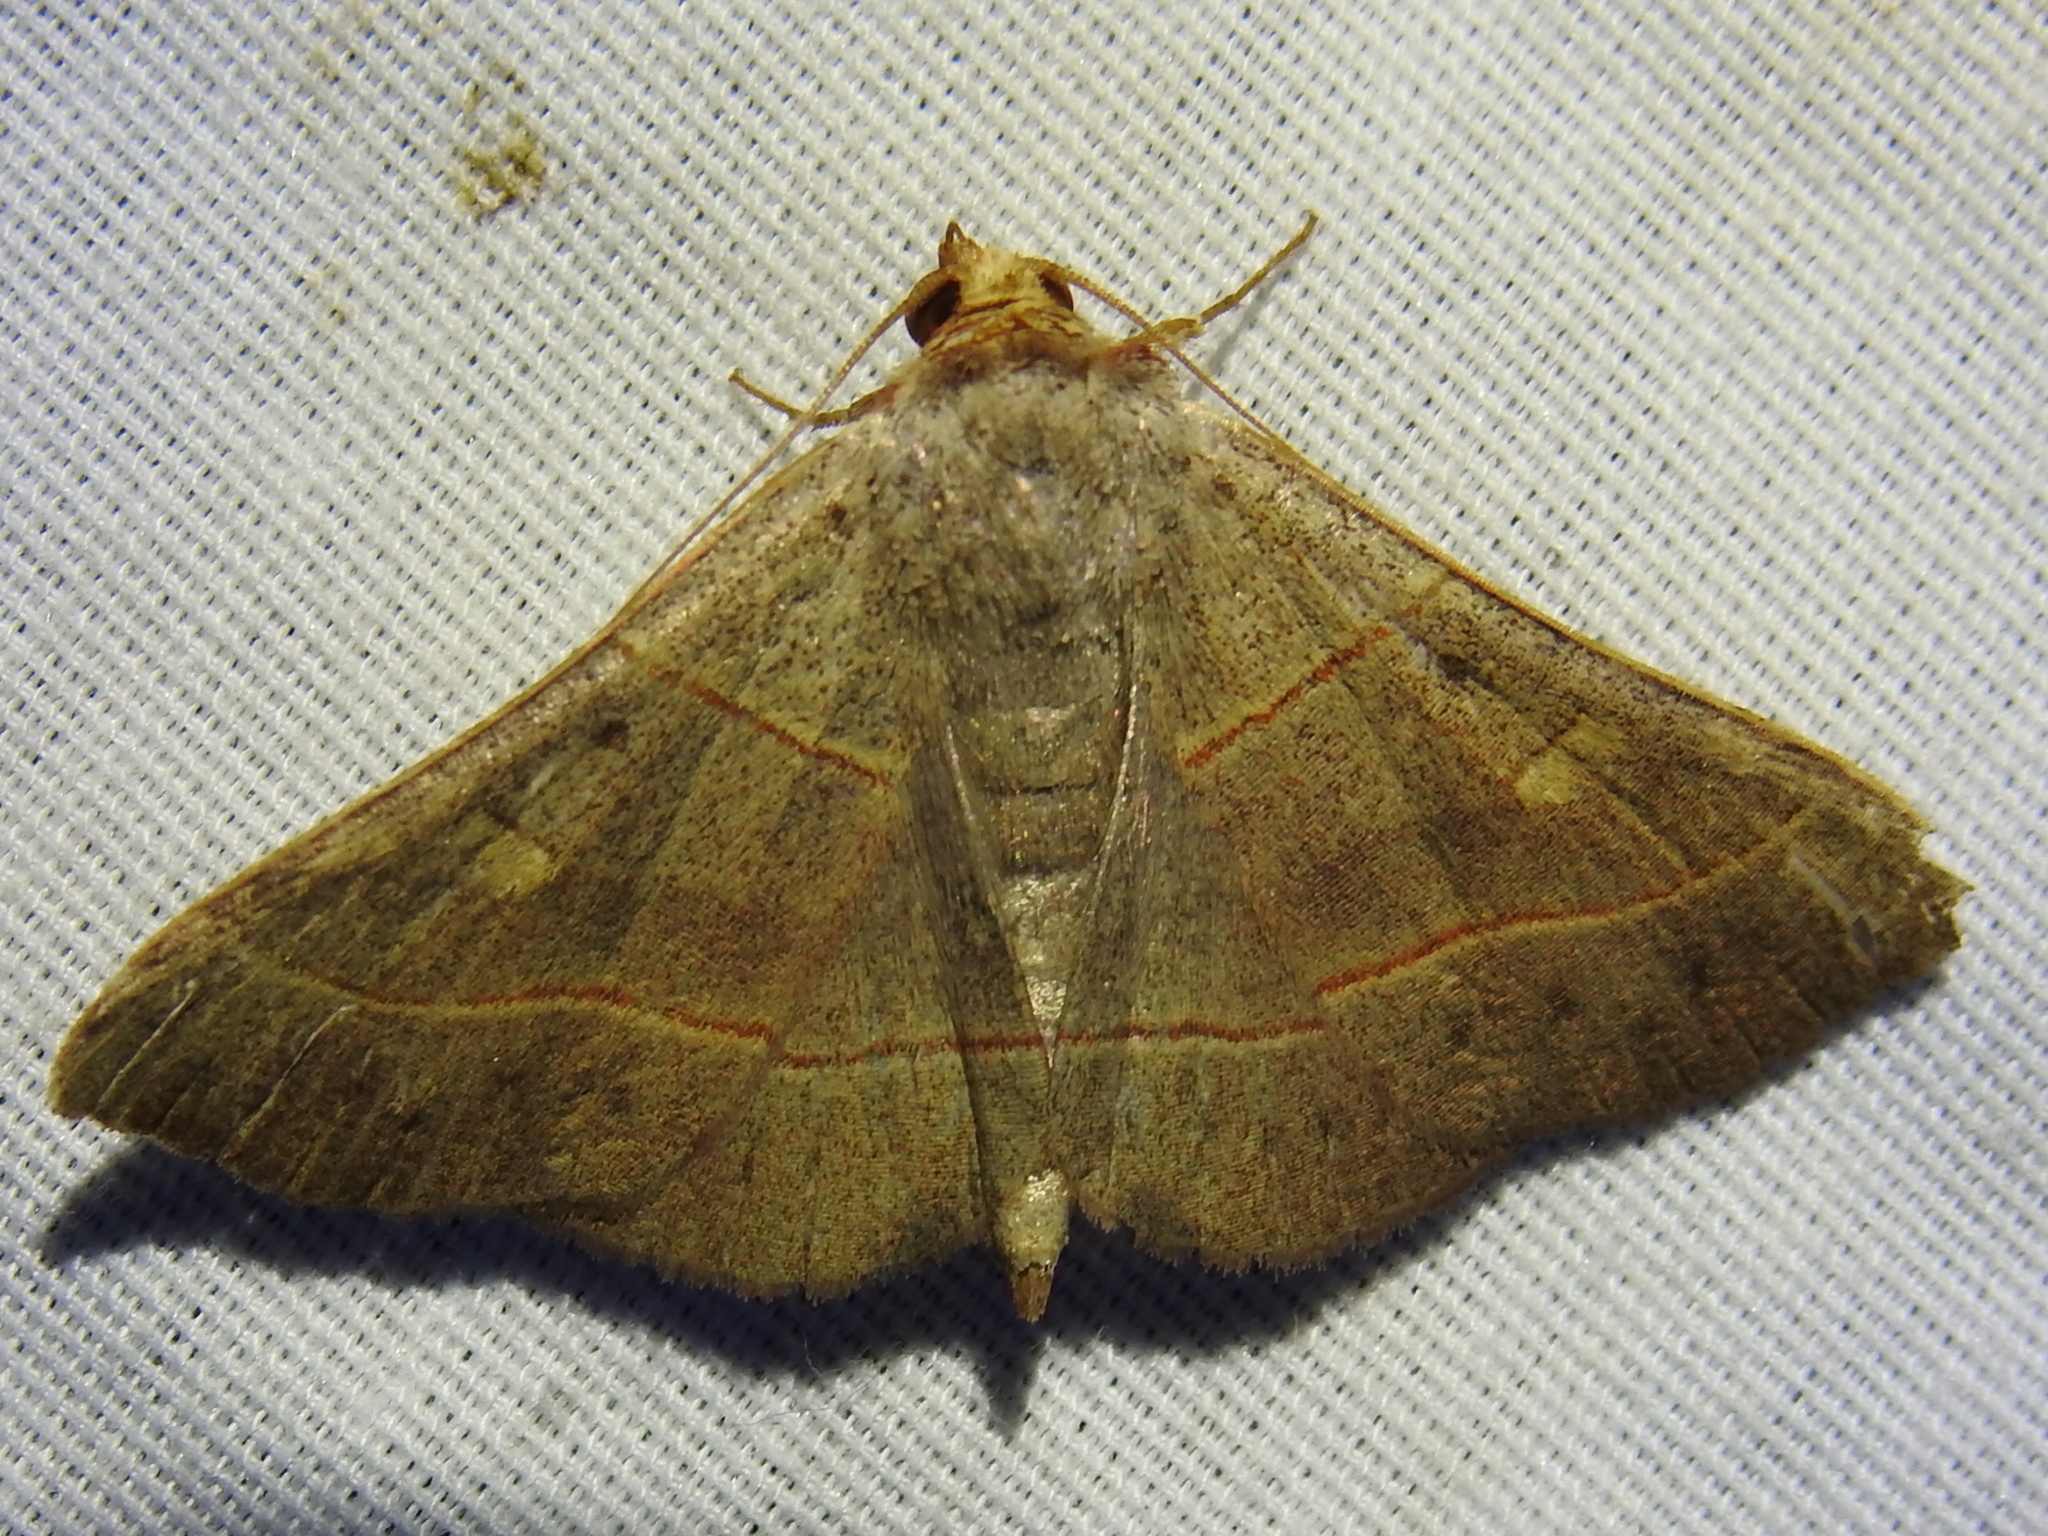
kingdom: Animalia
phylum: Arthropoda
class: Insecta
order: Lepidoptera
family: Erebidae
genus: Panopoda
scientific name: Panopoda rufimargo
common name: Red-lined panopoda moth
